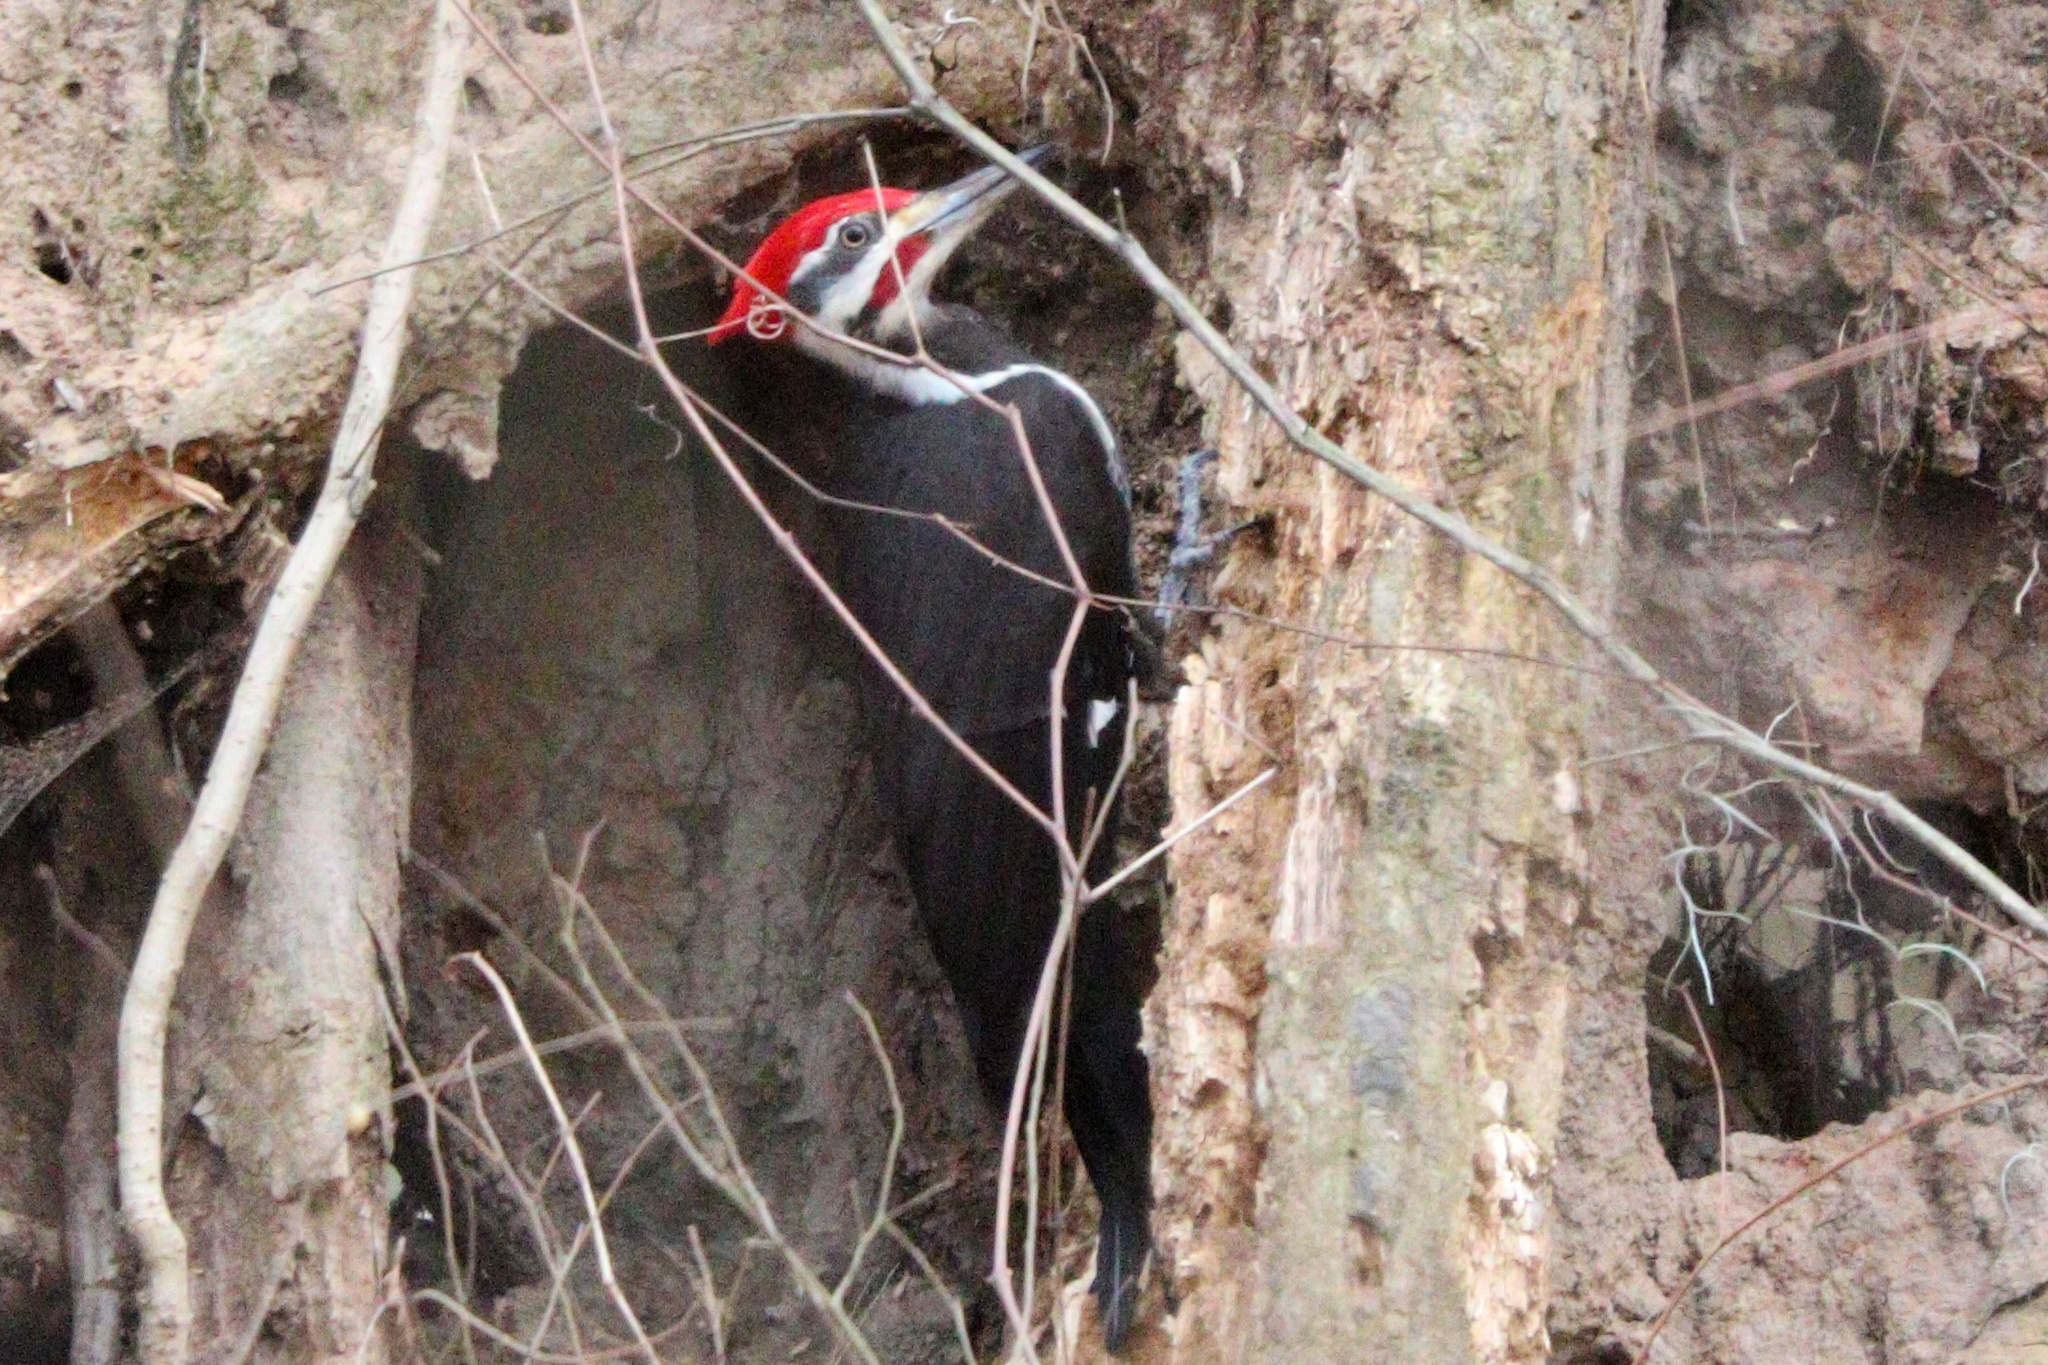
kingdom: Animalia
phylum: Chordata
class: Aves
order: Piciformes
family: Picidae
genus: Dryocopus
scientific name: Dryocopus pileatus
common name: Pileated woodpecker
